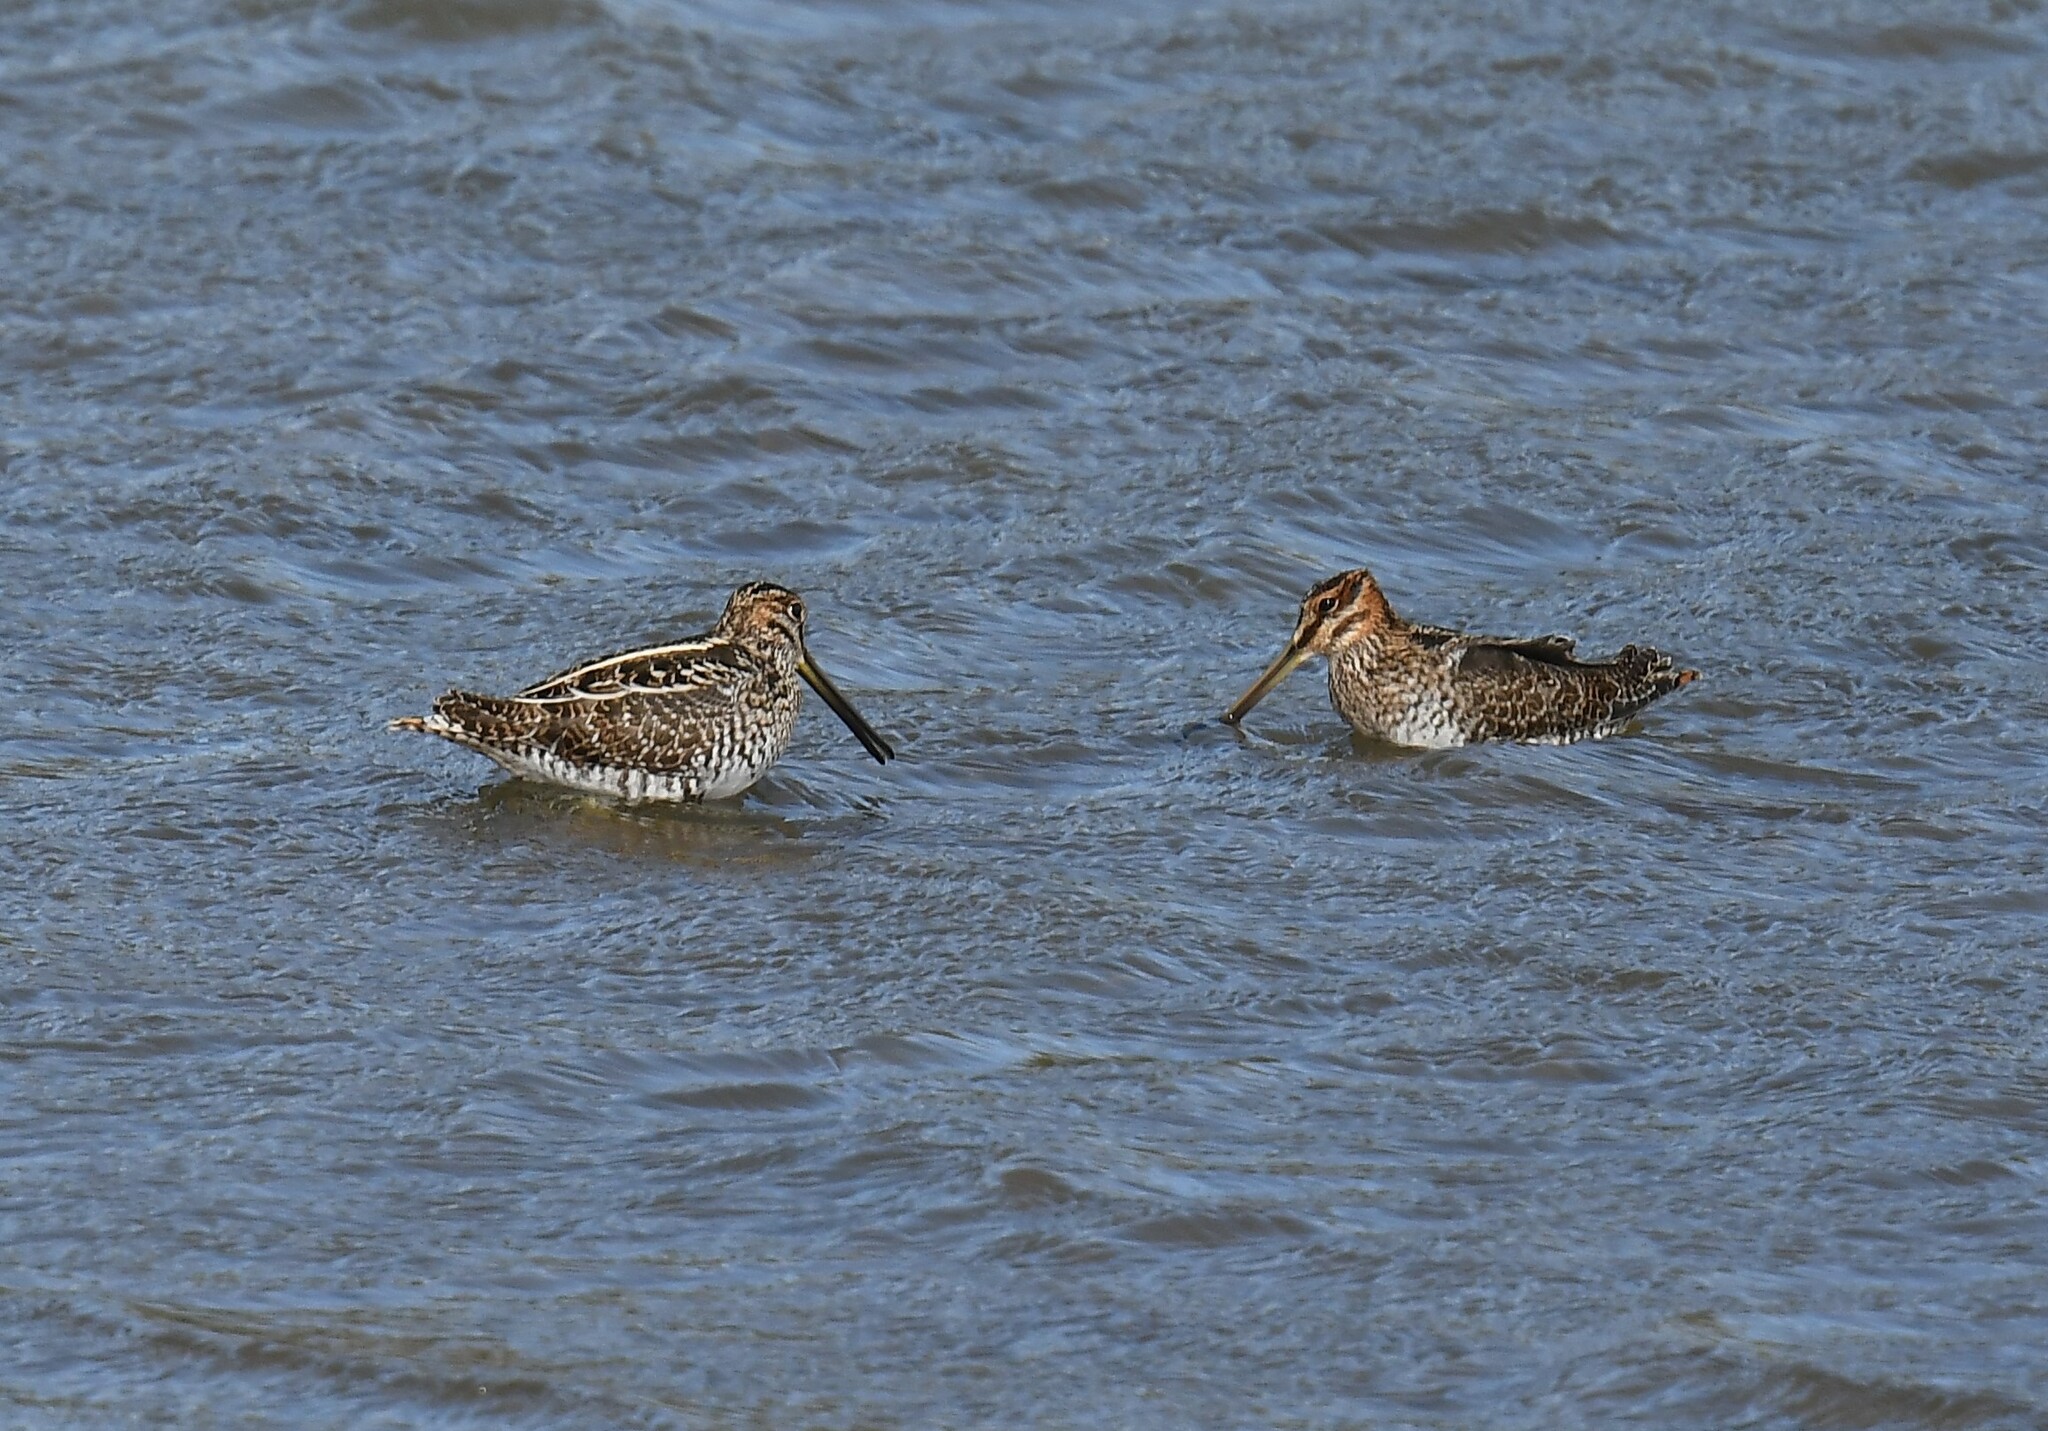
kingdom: Animalia
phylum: Chordata
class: Aves
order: Charadriiformes
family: Scolopacidae
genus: Gallinago
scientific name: Gallinago delicata
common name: Wilson's snipe
